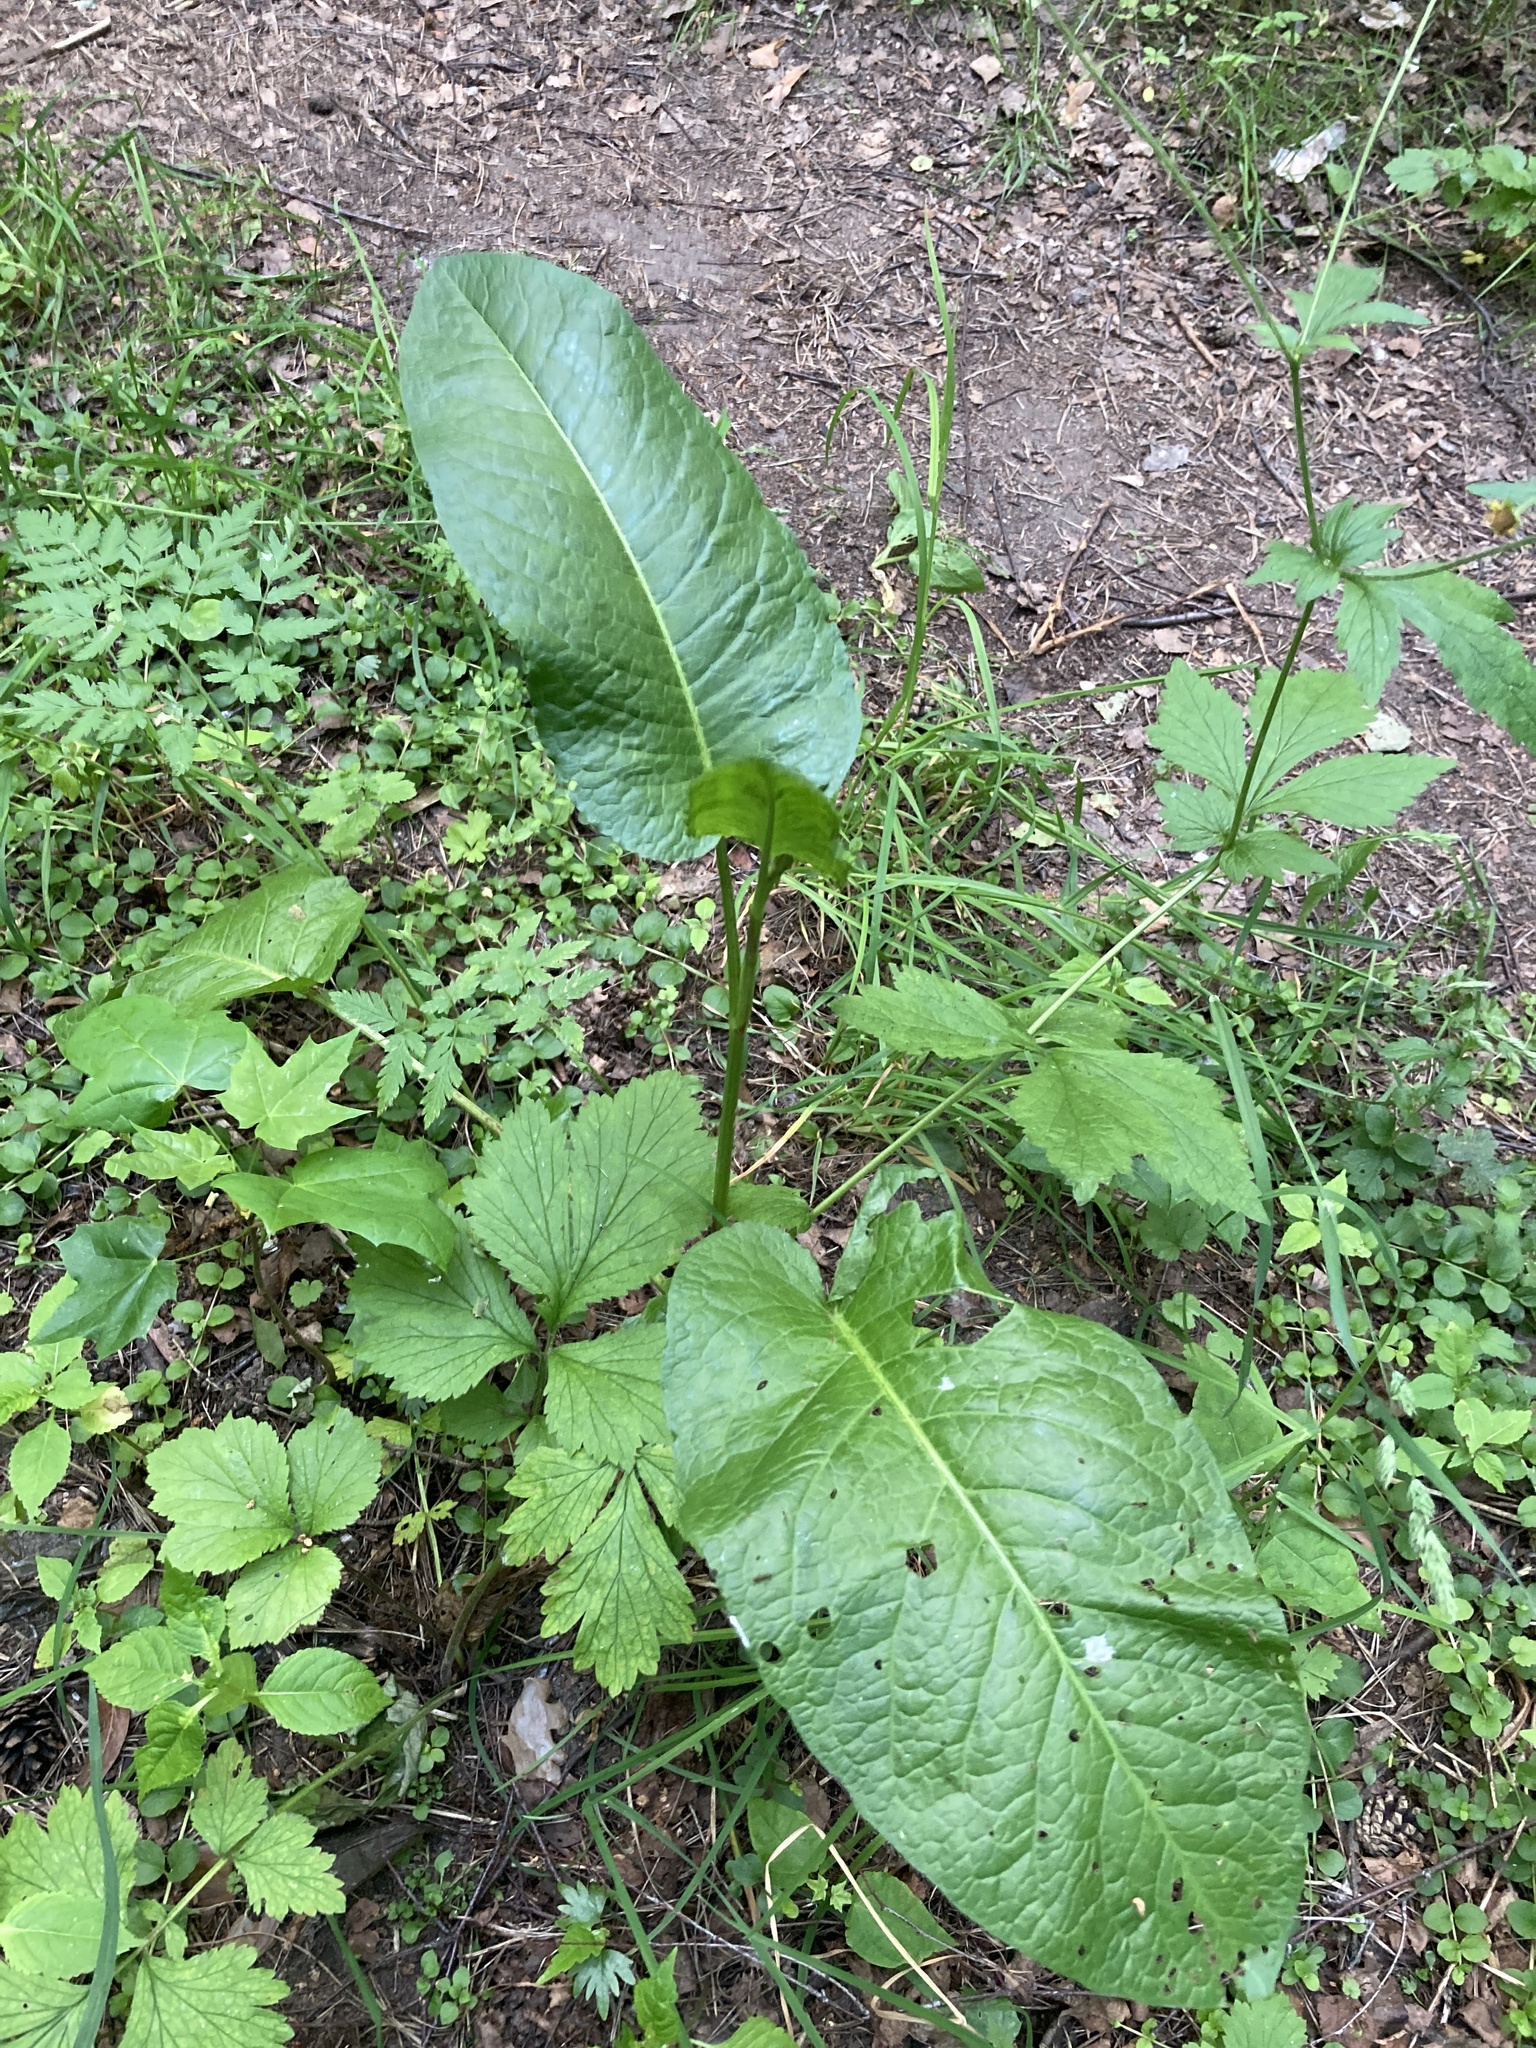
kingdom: Plantae
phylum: Tracheophyta
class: Magnoliopsida
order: Caryophyllales
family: Polygonaceae
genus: Rumex
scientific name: Rumex obtusifolius
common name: Bitter dock
